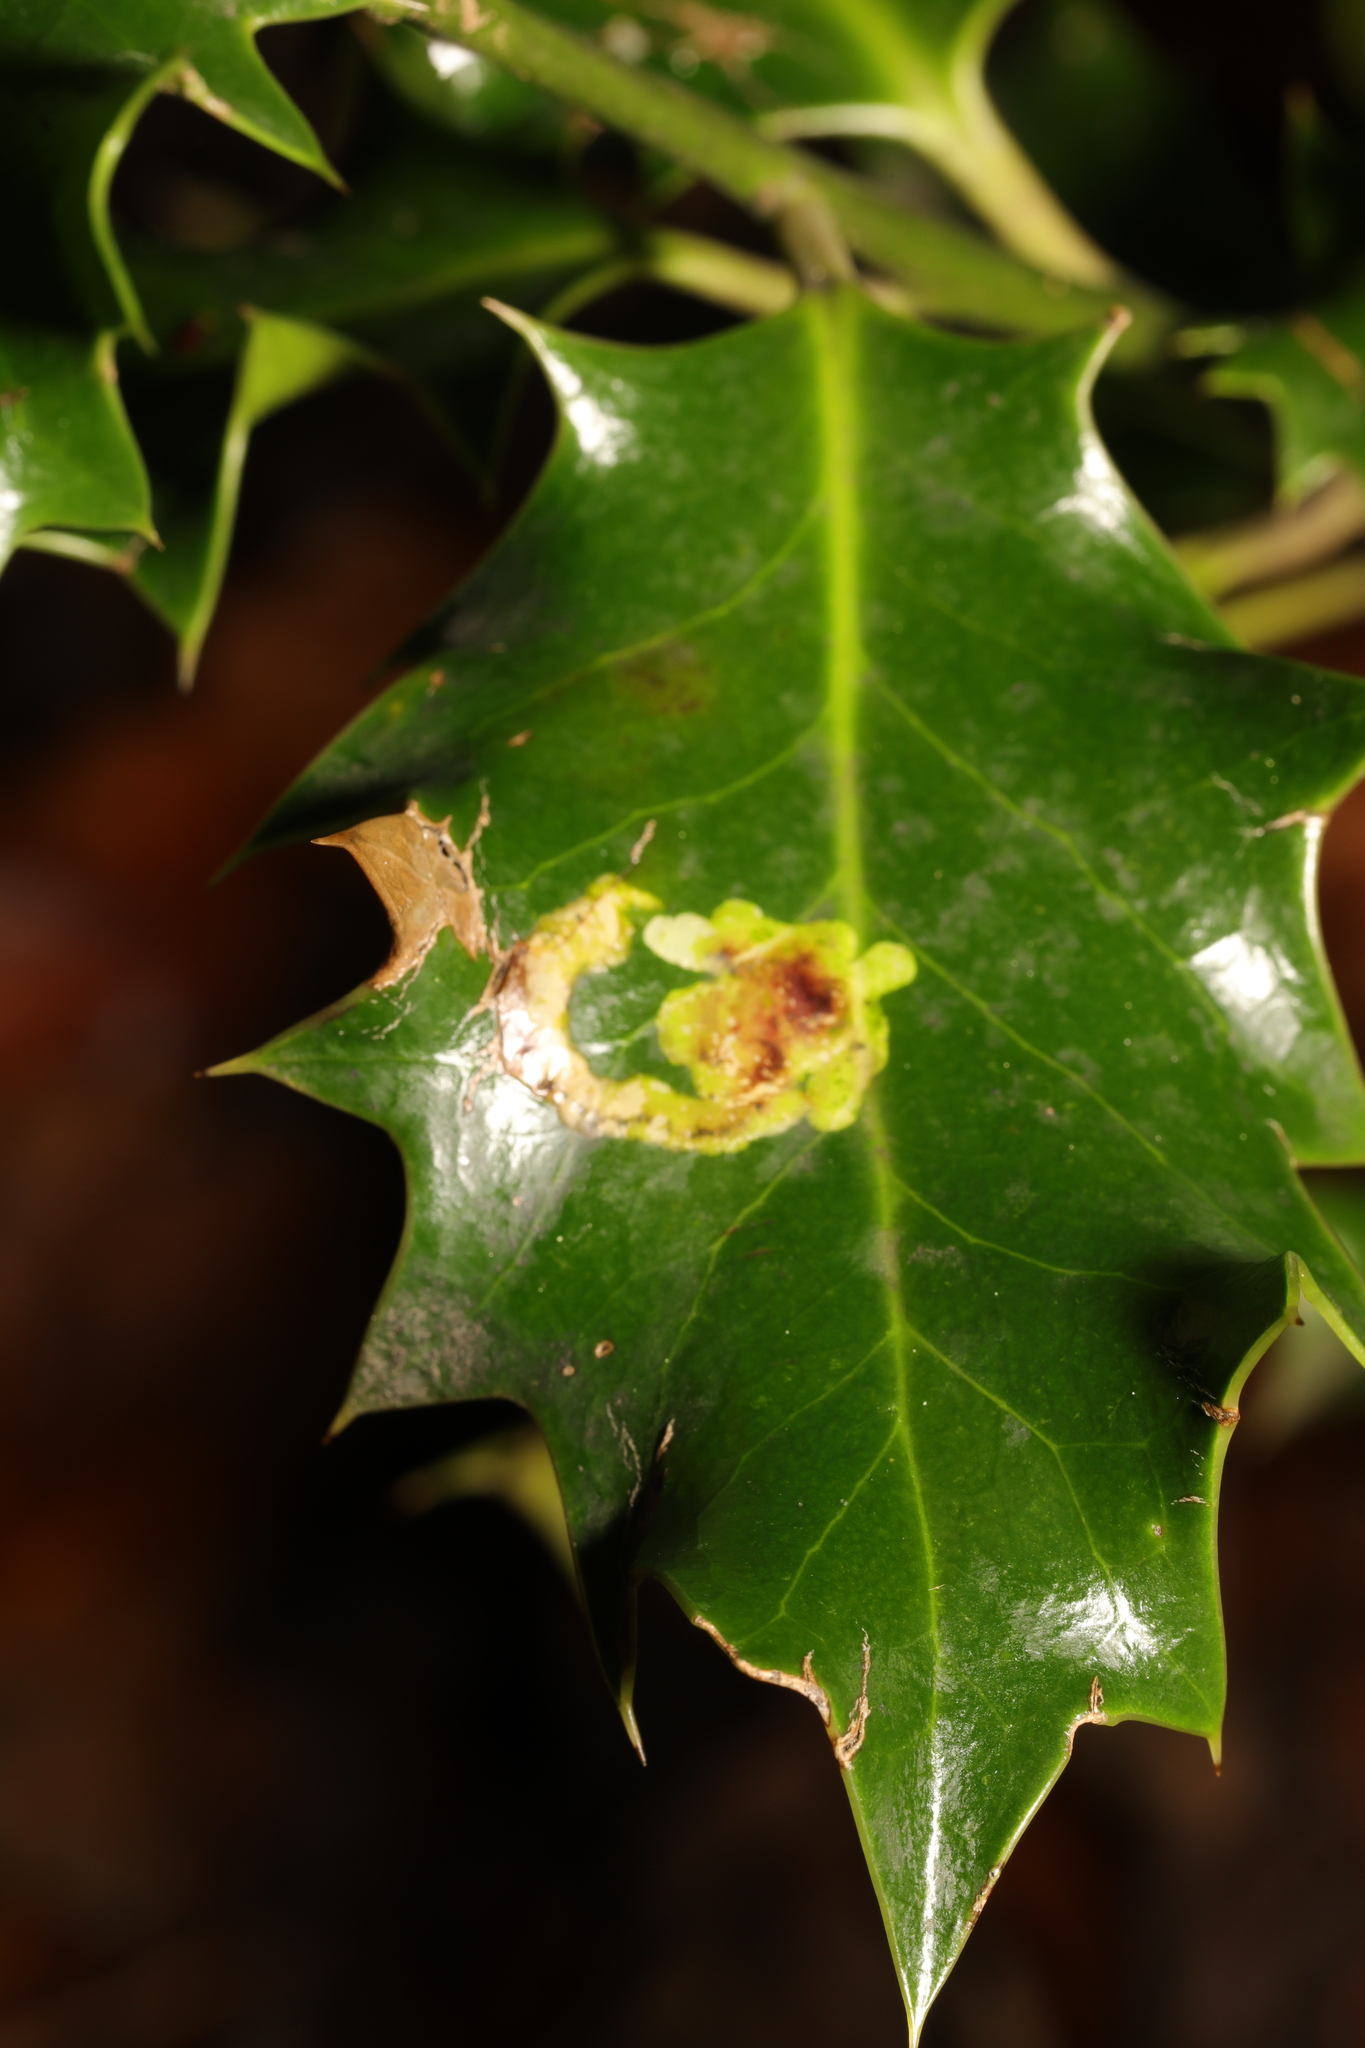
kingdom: Animalia
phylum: Arthropoda
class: Insecta
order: Diptera
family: Agromyzidae
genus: Phytomyza
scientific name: Phytomyza ilicis
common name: Holly leafminer
